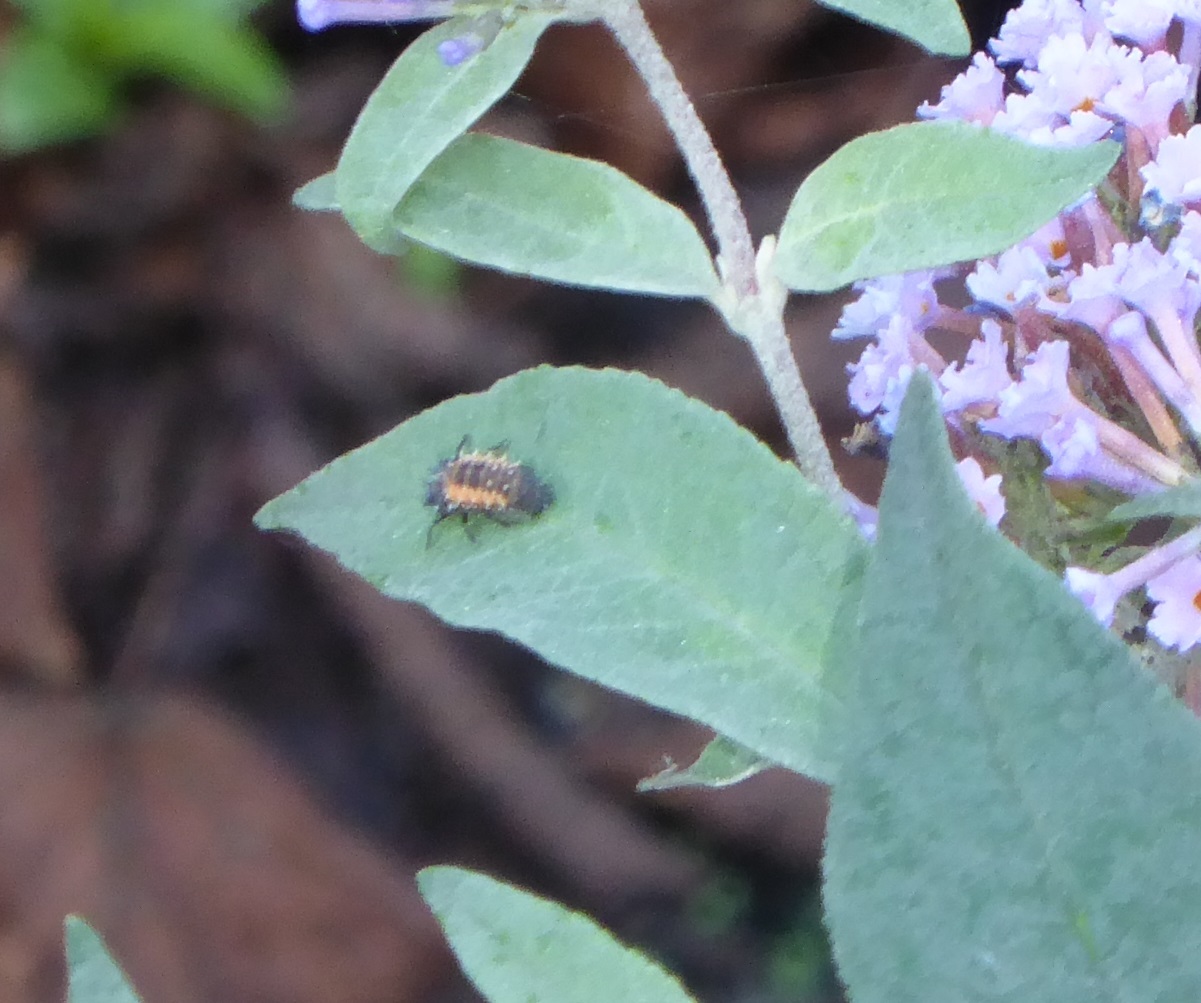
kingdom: Animalia
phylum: Arthropoda
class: Insecta
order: Coleoptera
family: Coccinellidae
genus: Harmonia
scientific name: Harmonia axyridis
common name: Harlequin ladybird
